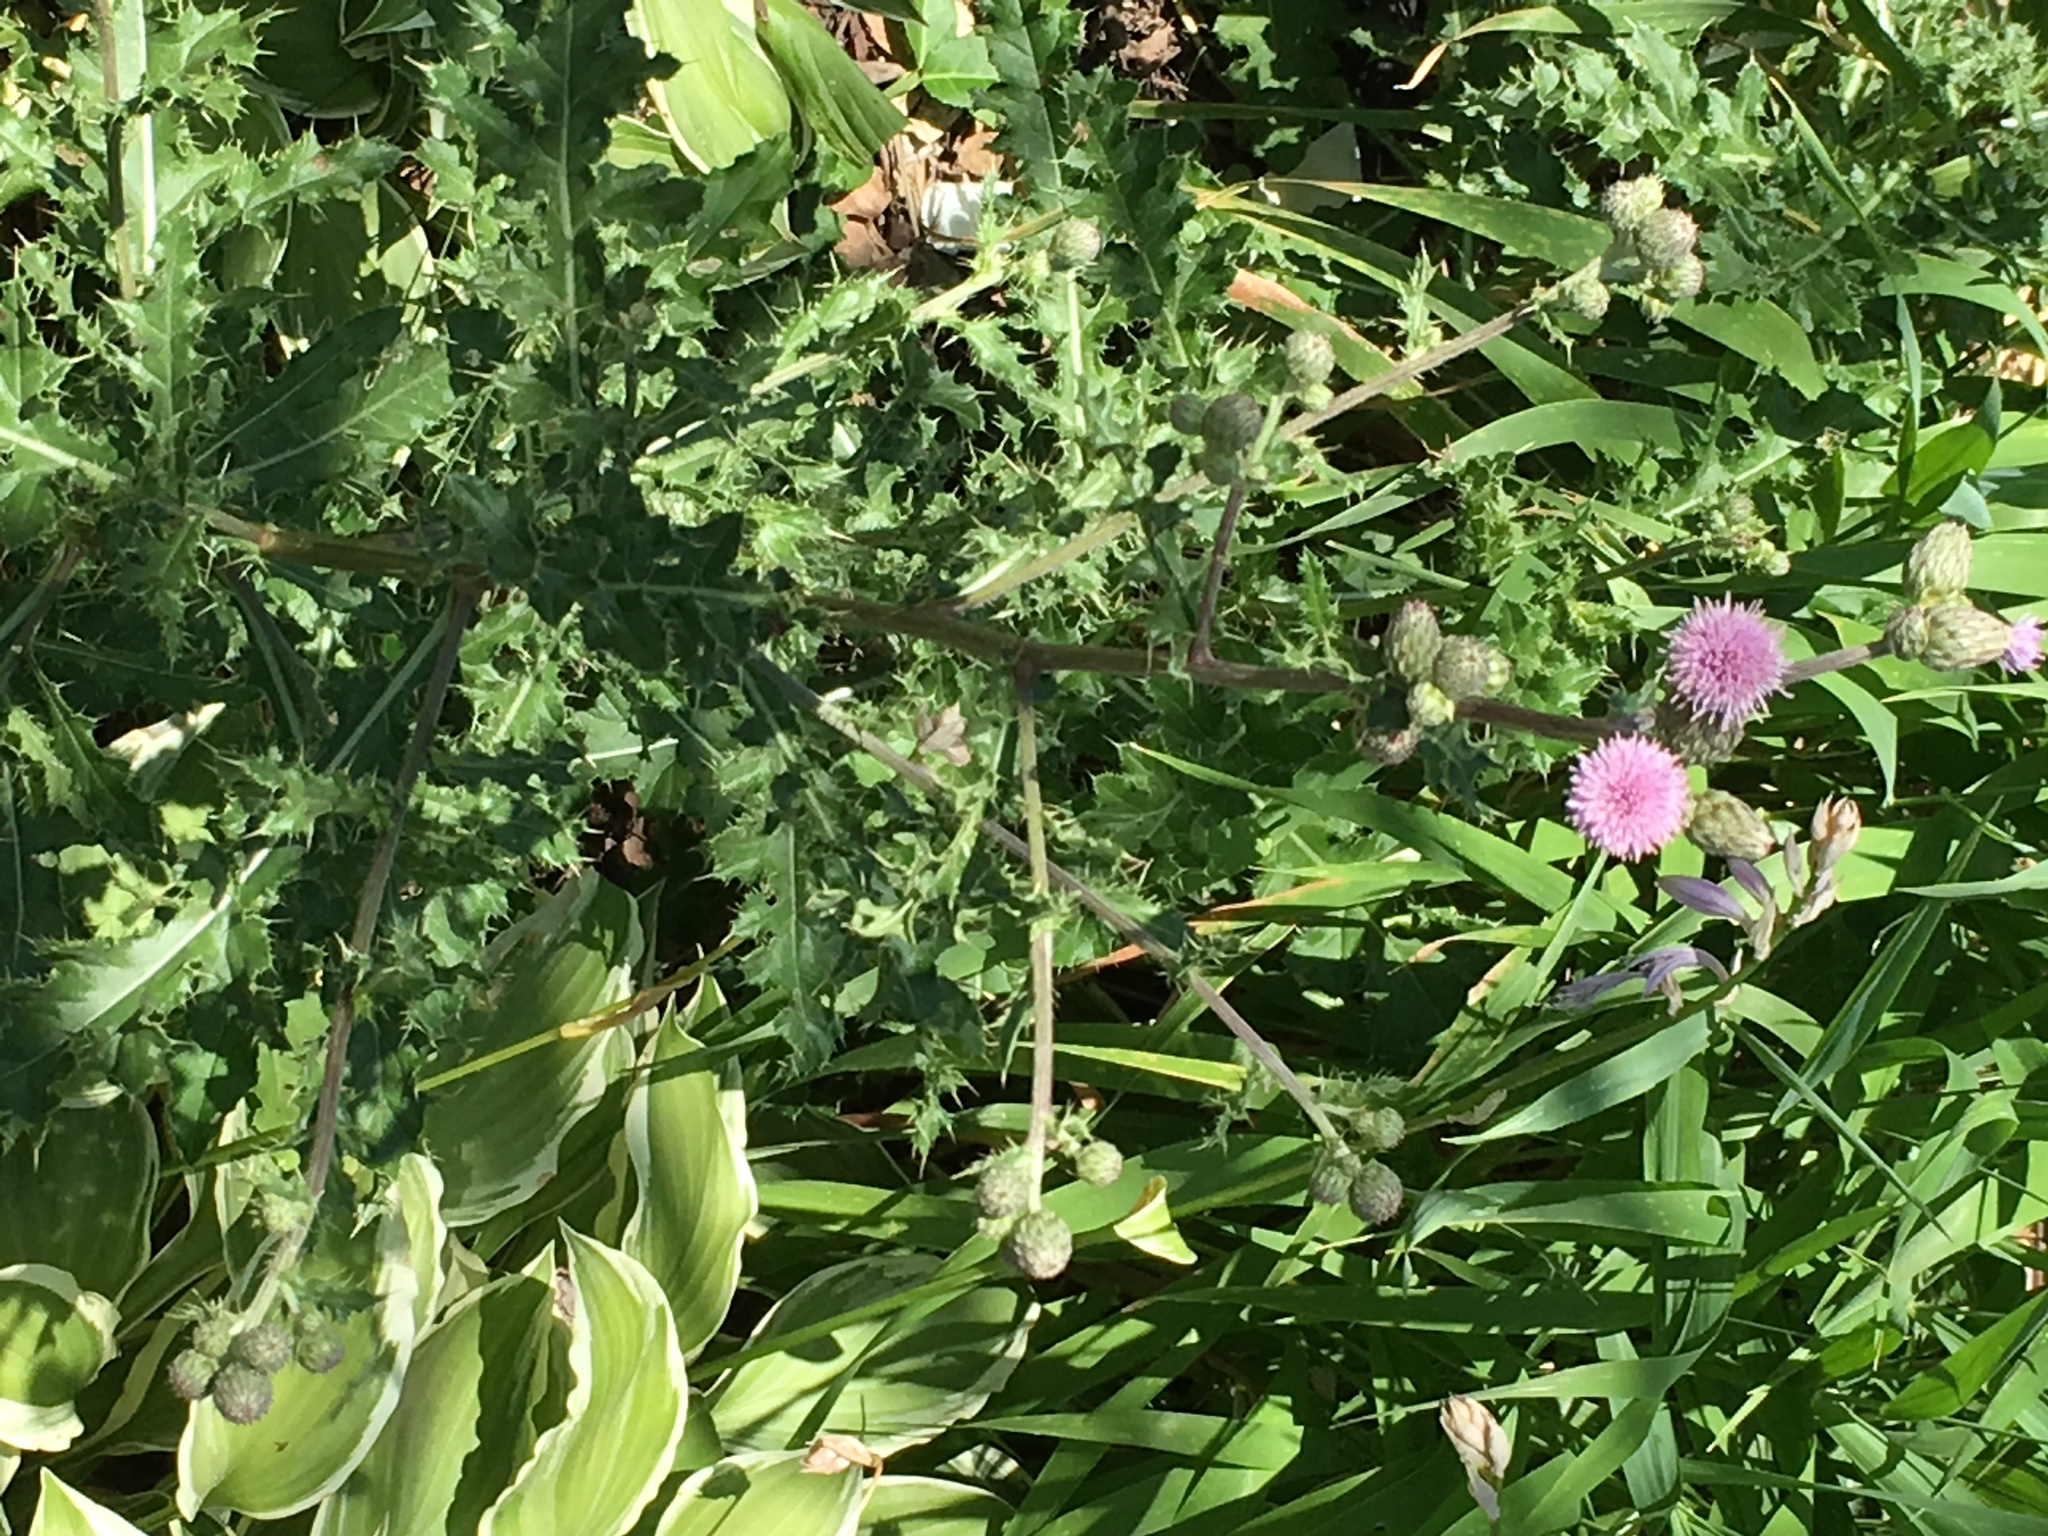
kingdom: Plantae
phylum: Tracheophyta
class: Magnoliopsida
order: Asterales
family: Asteraceae
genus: Cirsium
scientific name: Cirsium arvense
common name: Creeping thistle
